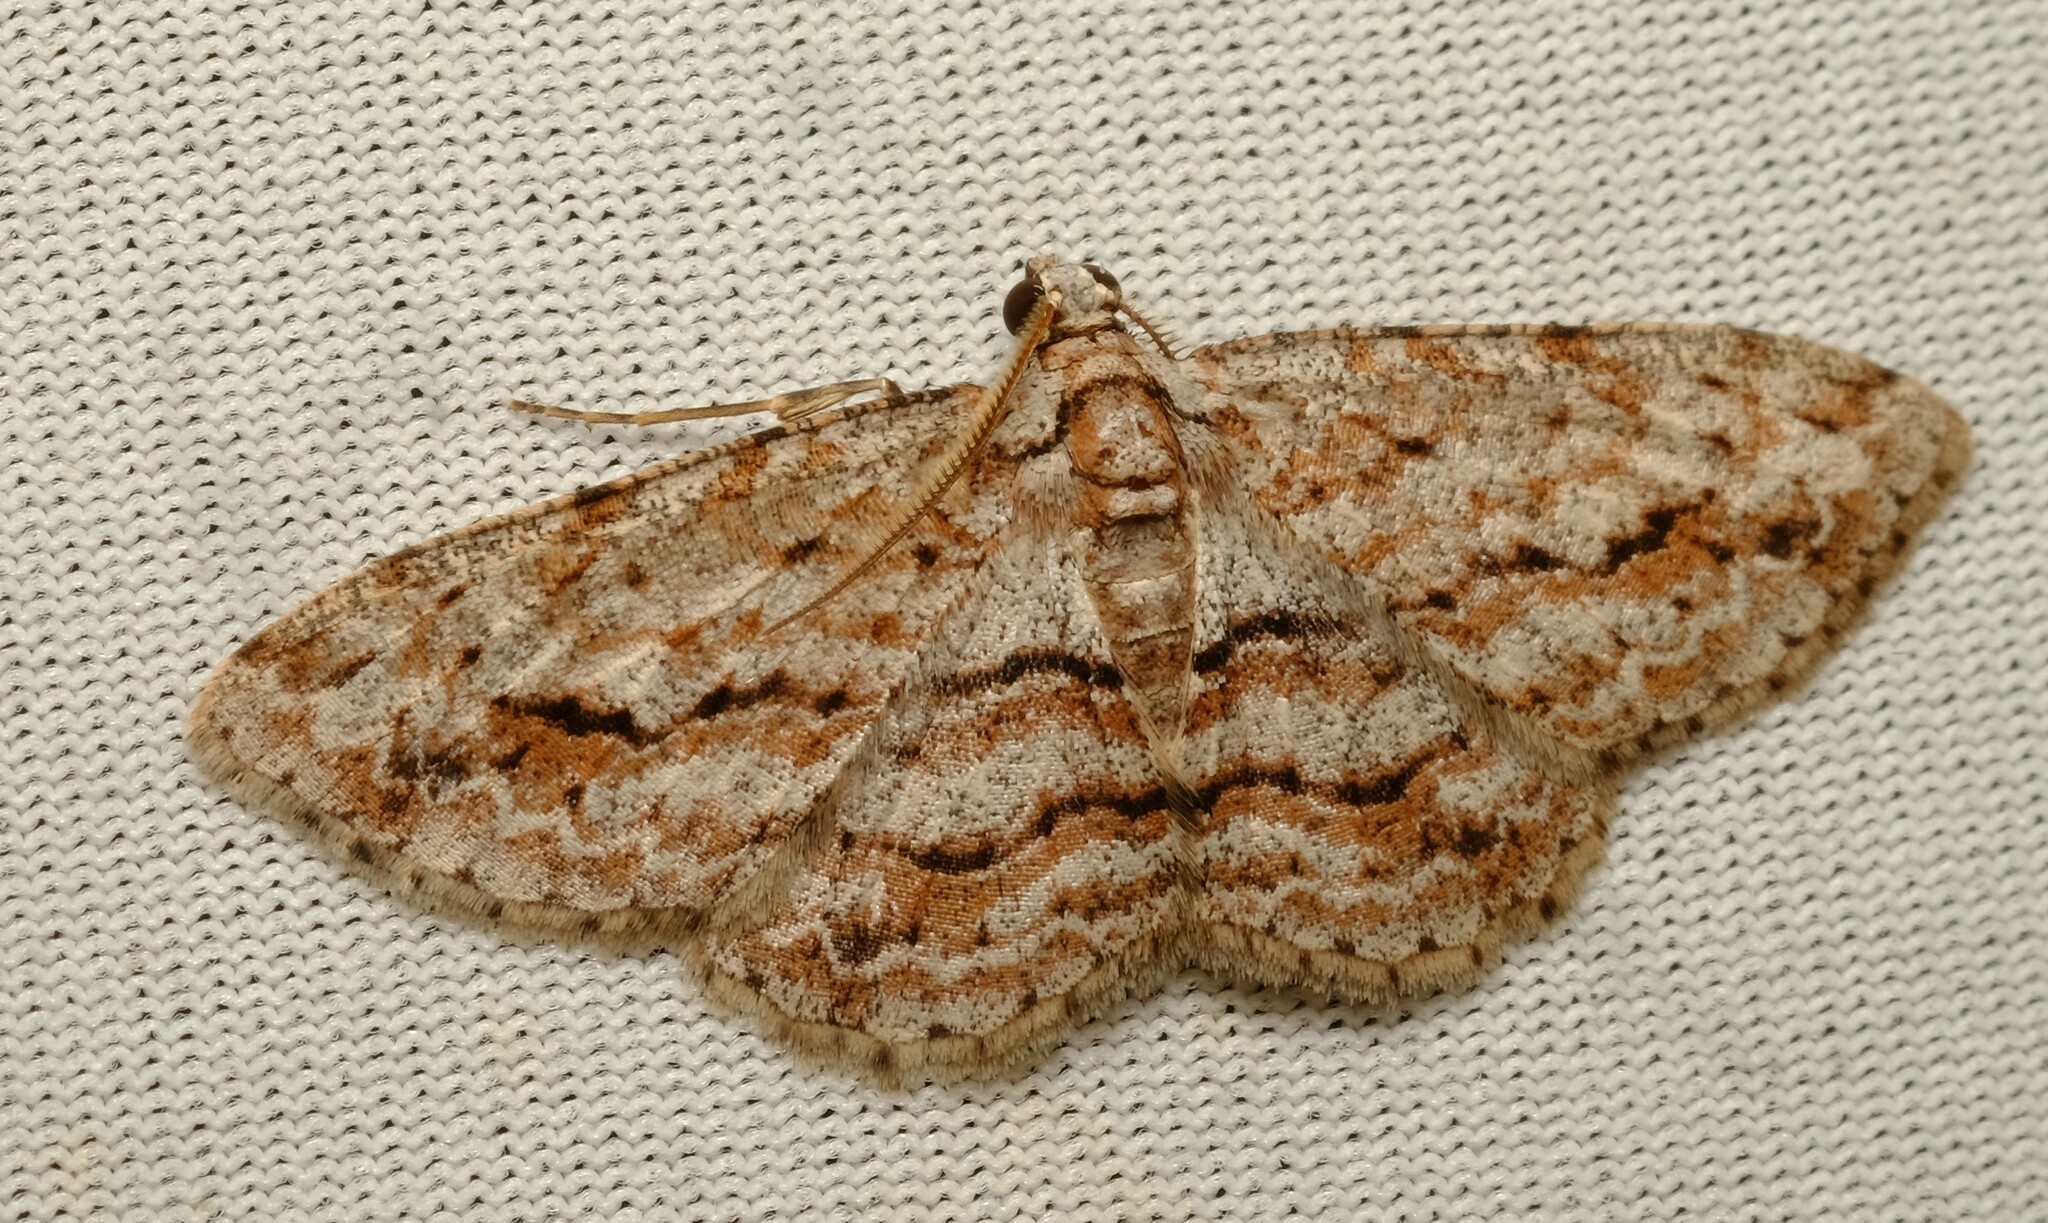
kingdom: Animalia
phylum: Arthropoda
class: Insecta
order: Lepidoptera
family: Geometridae
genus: Didymoctenia
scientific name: Didymoctenia exsuperata
